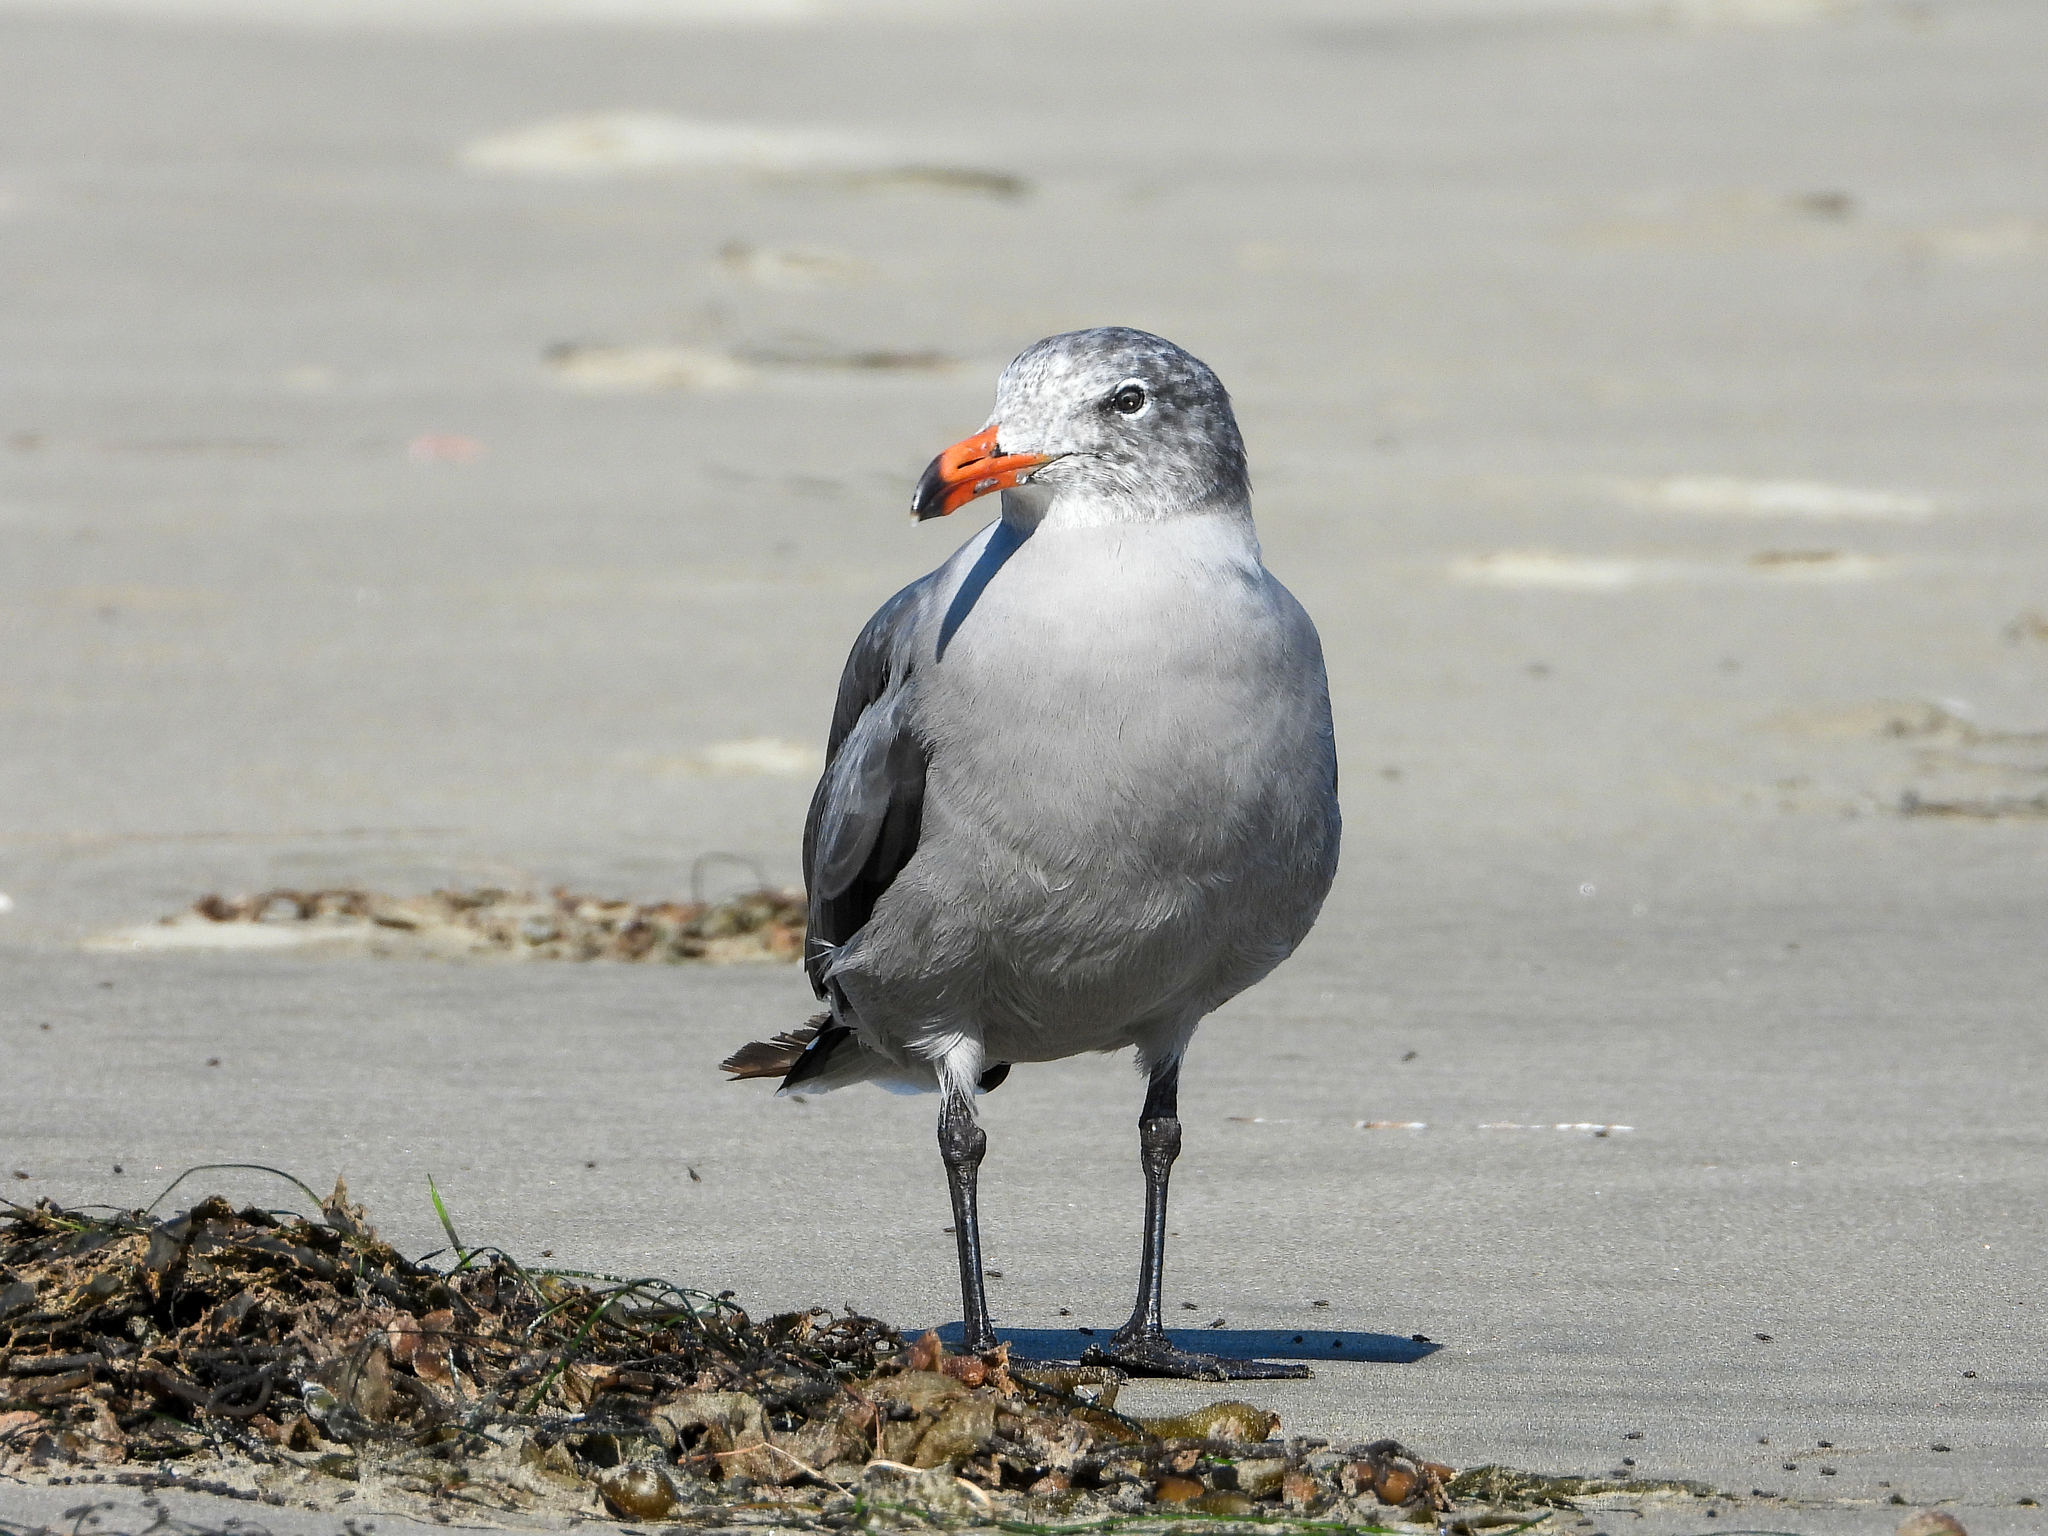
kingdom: Animalia
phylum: Chordata
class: Aves
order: Charadriiformes
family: Laridae
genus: Larus
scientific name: Larus heermanni
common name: Heermann's gull
